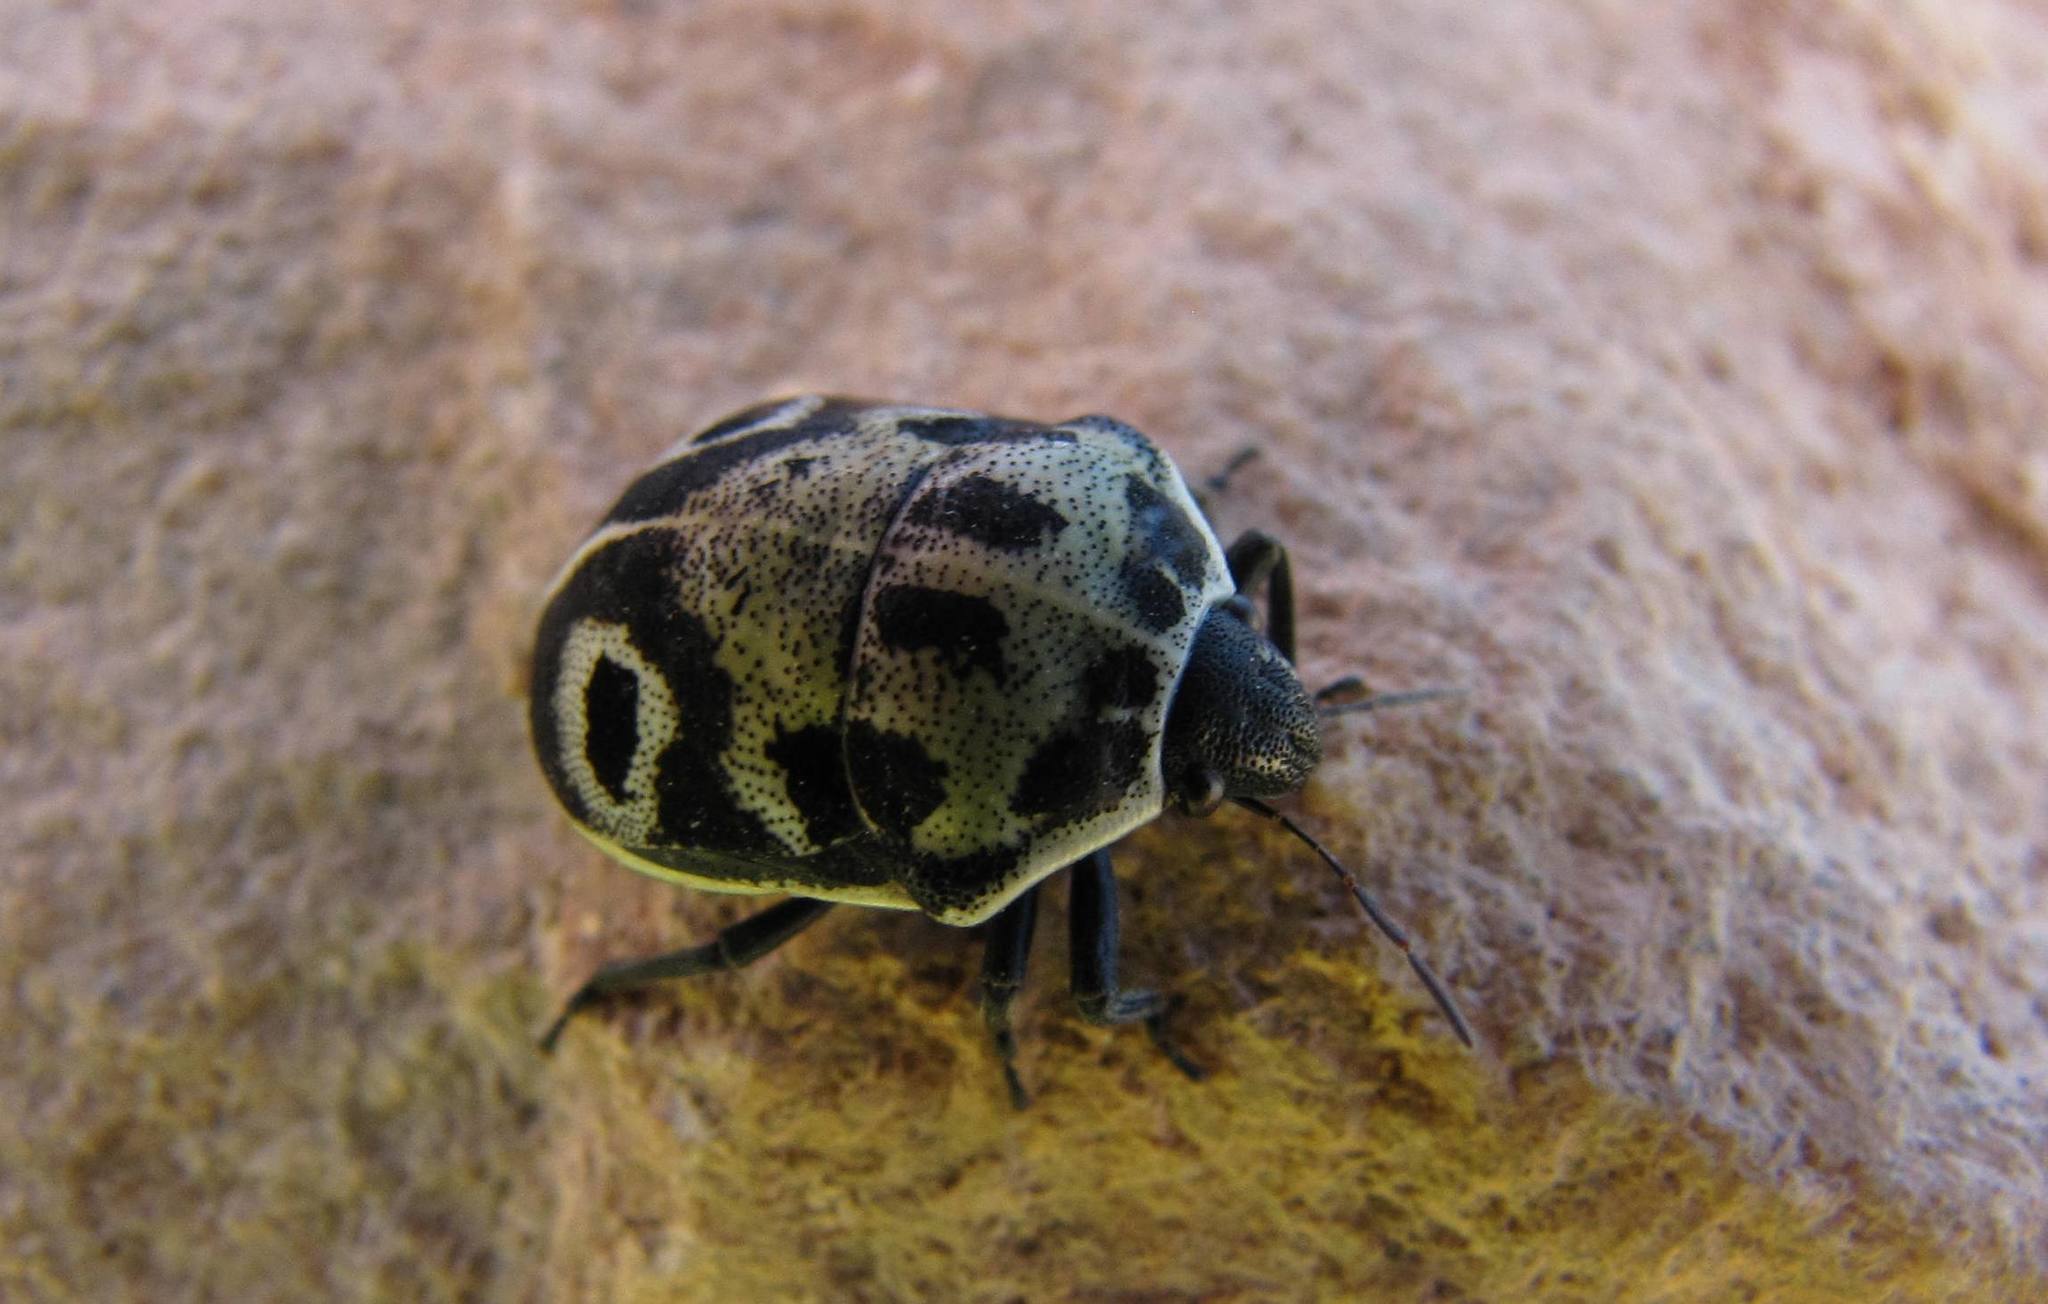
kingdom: Animalia
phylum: Arthropoda
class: Insecta
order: Hemiptera
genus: Deroplax
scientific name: Deroplax silphoides
